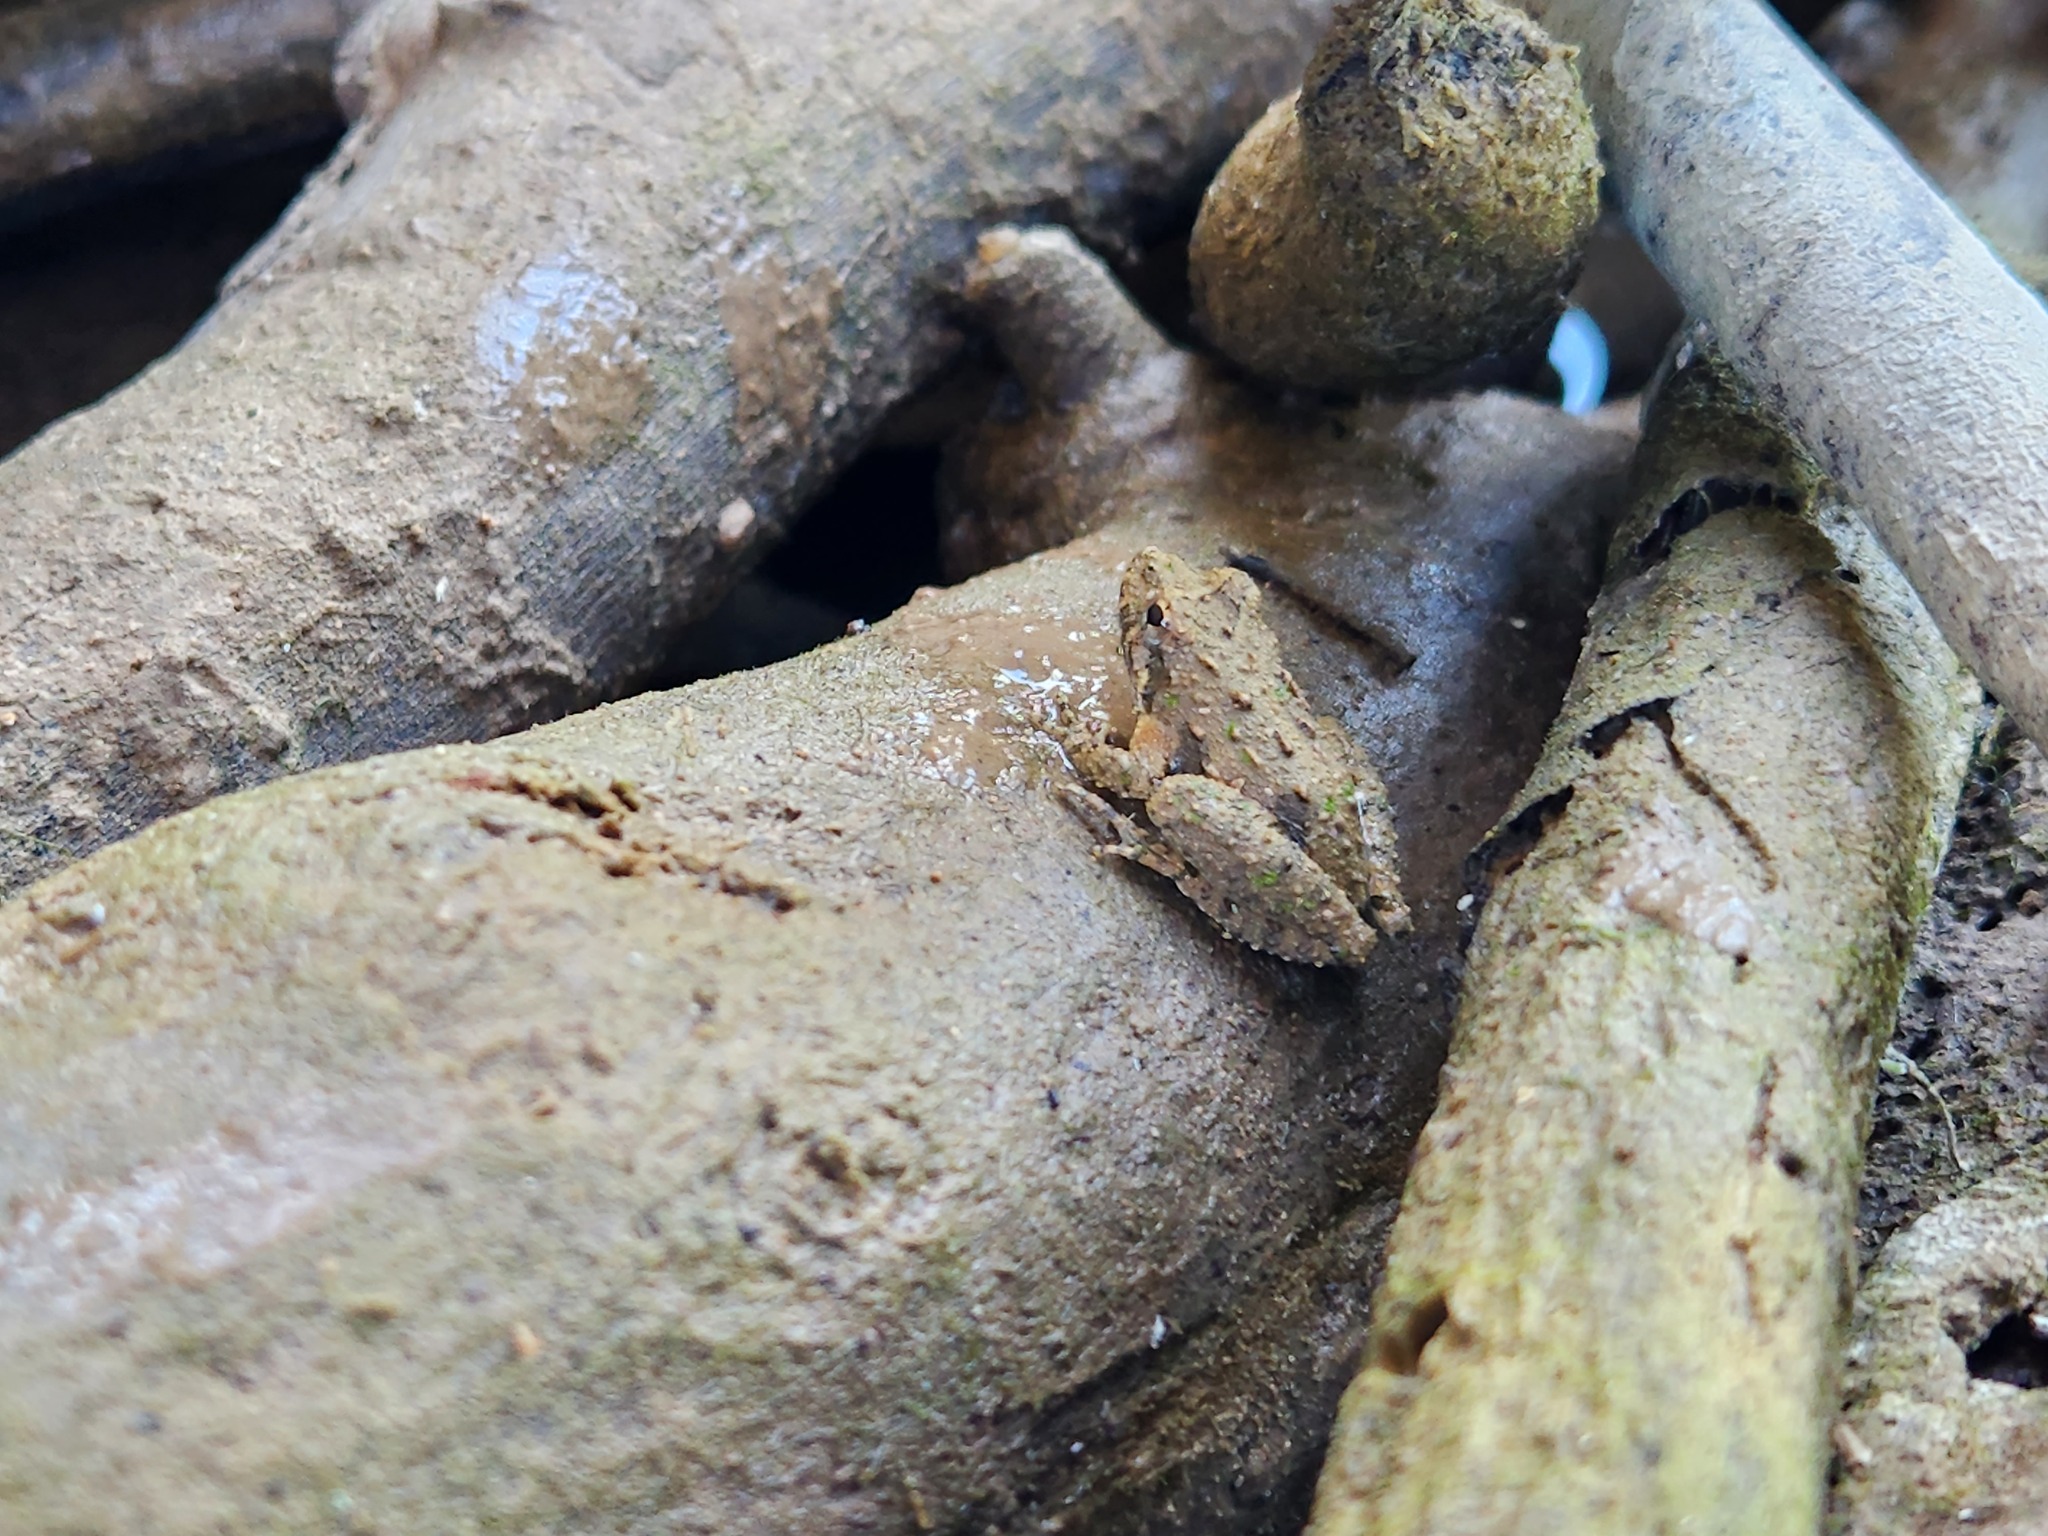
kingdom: Animalia
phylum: Chordata
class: Amphibia
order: Anura
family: Hylidae
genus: Acris
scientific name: Acris crepitans
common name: Northern cricket frog
